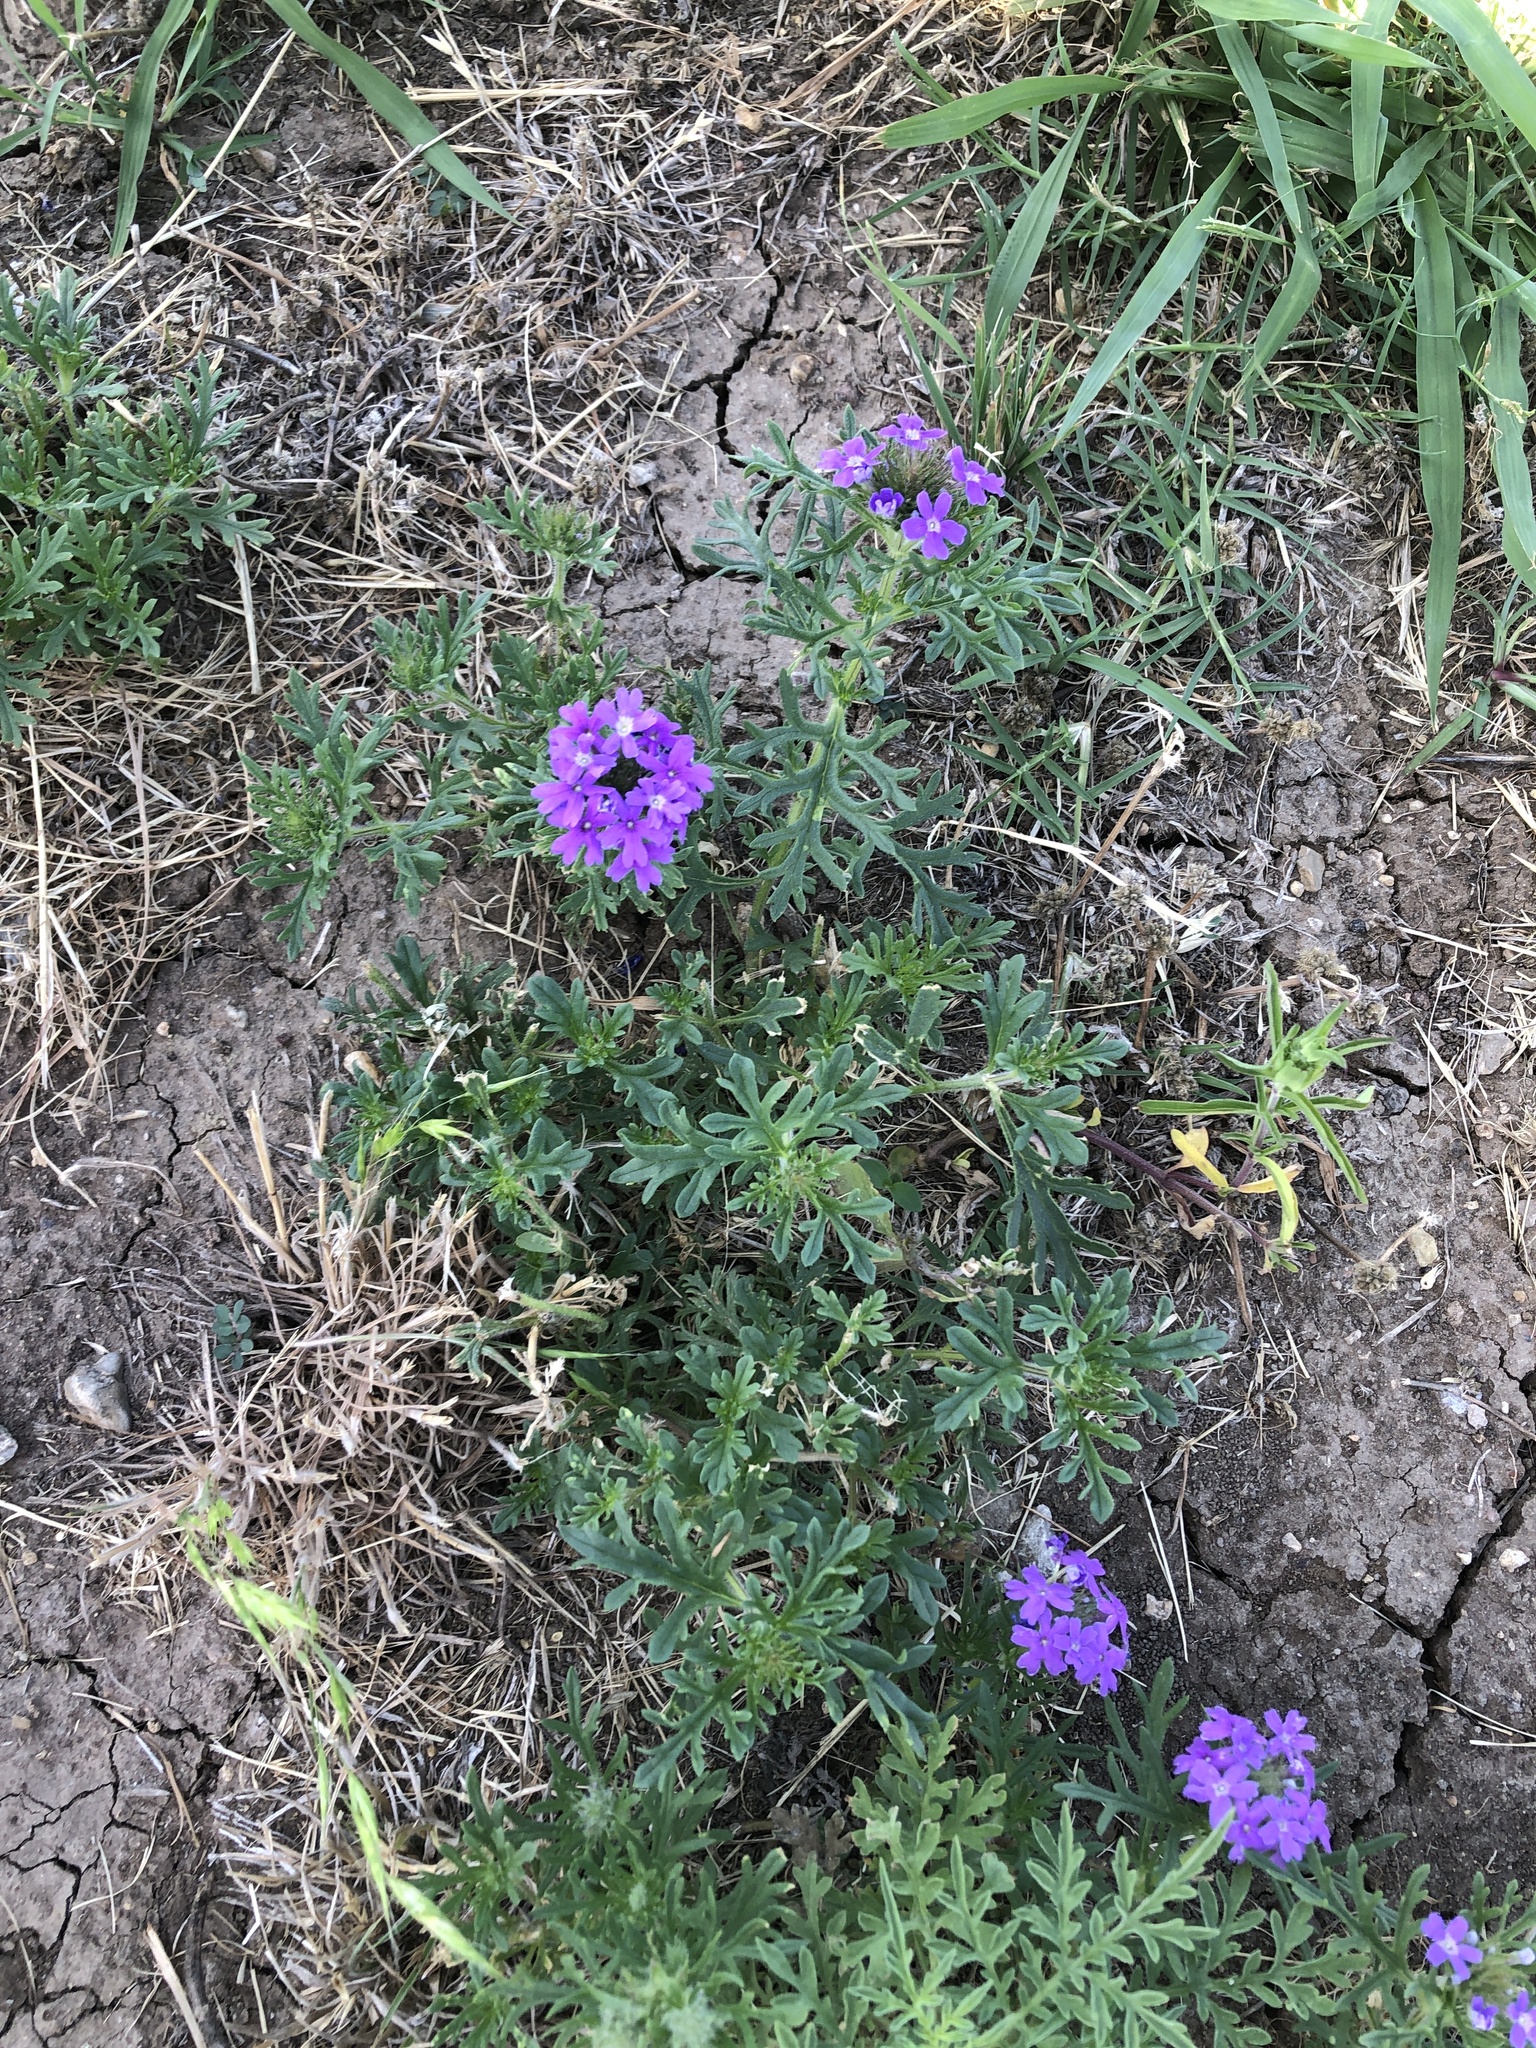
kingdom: Plantae
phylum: Tracheophyta
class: Magnoliopsida
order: Lamiales
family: Verbenaceae
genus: Verbena
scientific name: Verbena bipinnatifida
